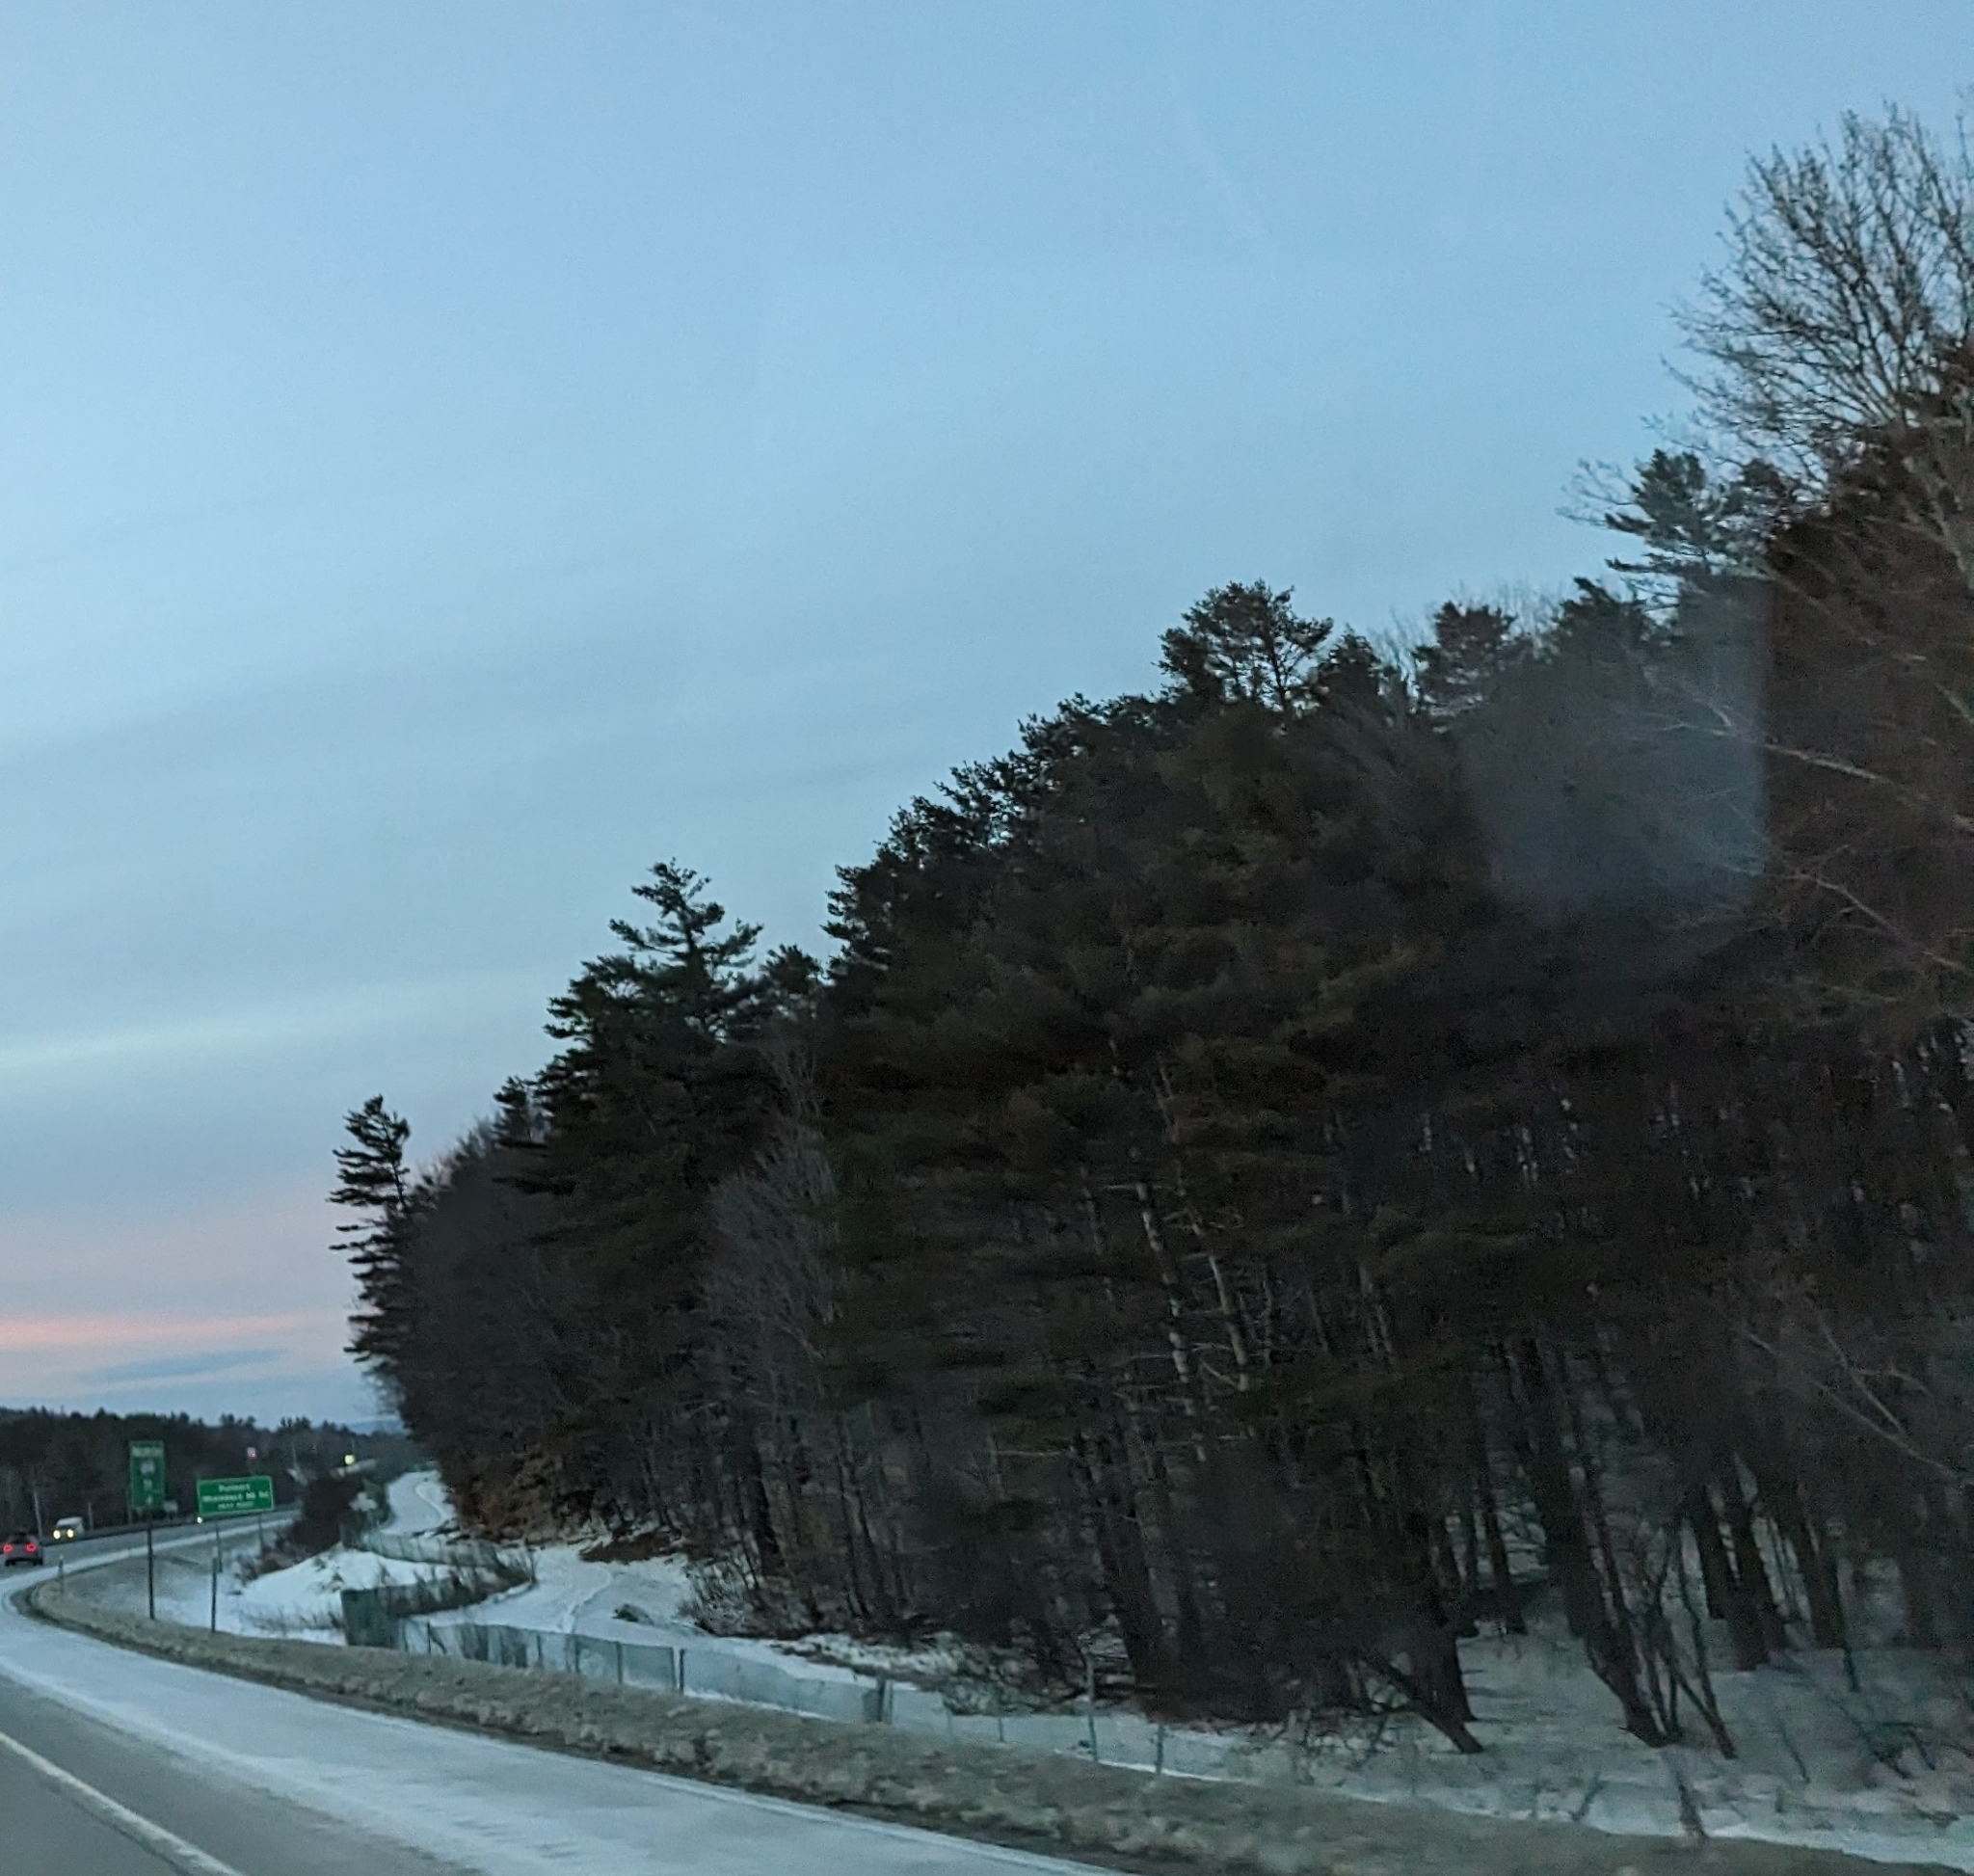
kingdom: Plantae
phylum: Tracheophyta
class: Pinopsida
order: Pinales
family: Pinaceae
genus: Pinus
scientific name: Pinus strobus
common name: Weymouth pine
